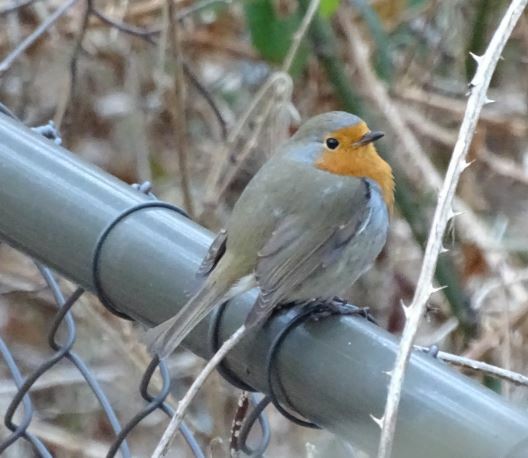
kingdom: Animalia
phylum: Chordata
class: Aves
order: Passeriformes
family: Muscicapidae
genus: Erithacus
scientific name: Erithacus rubecula
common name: European robin
